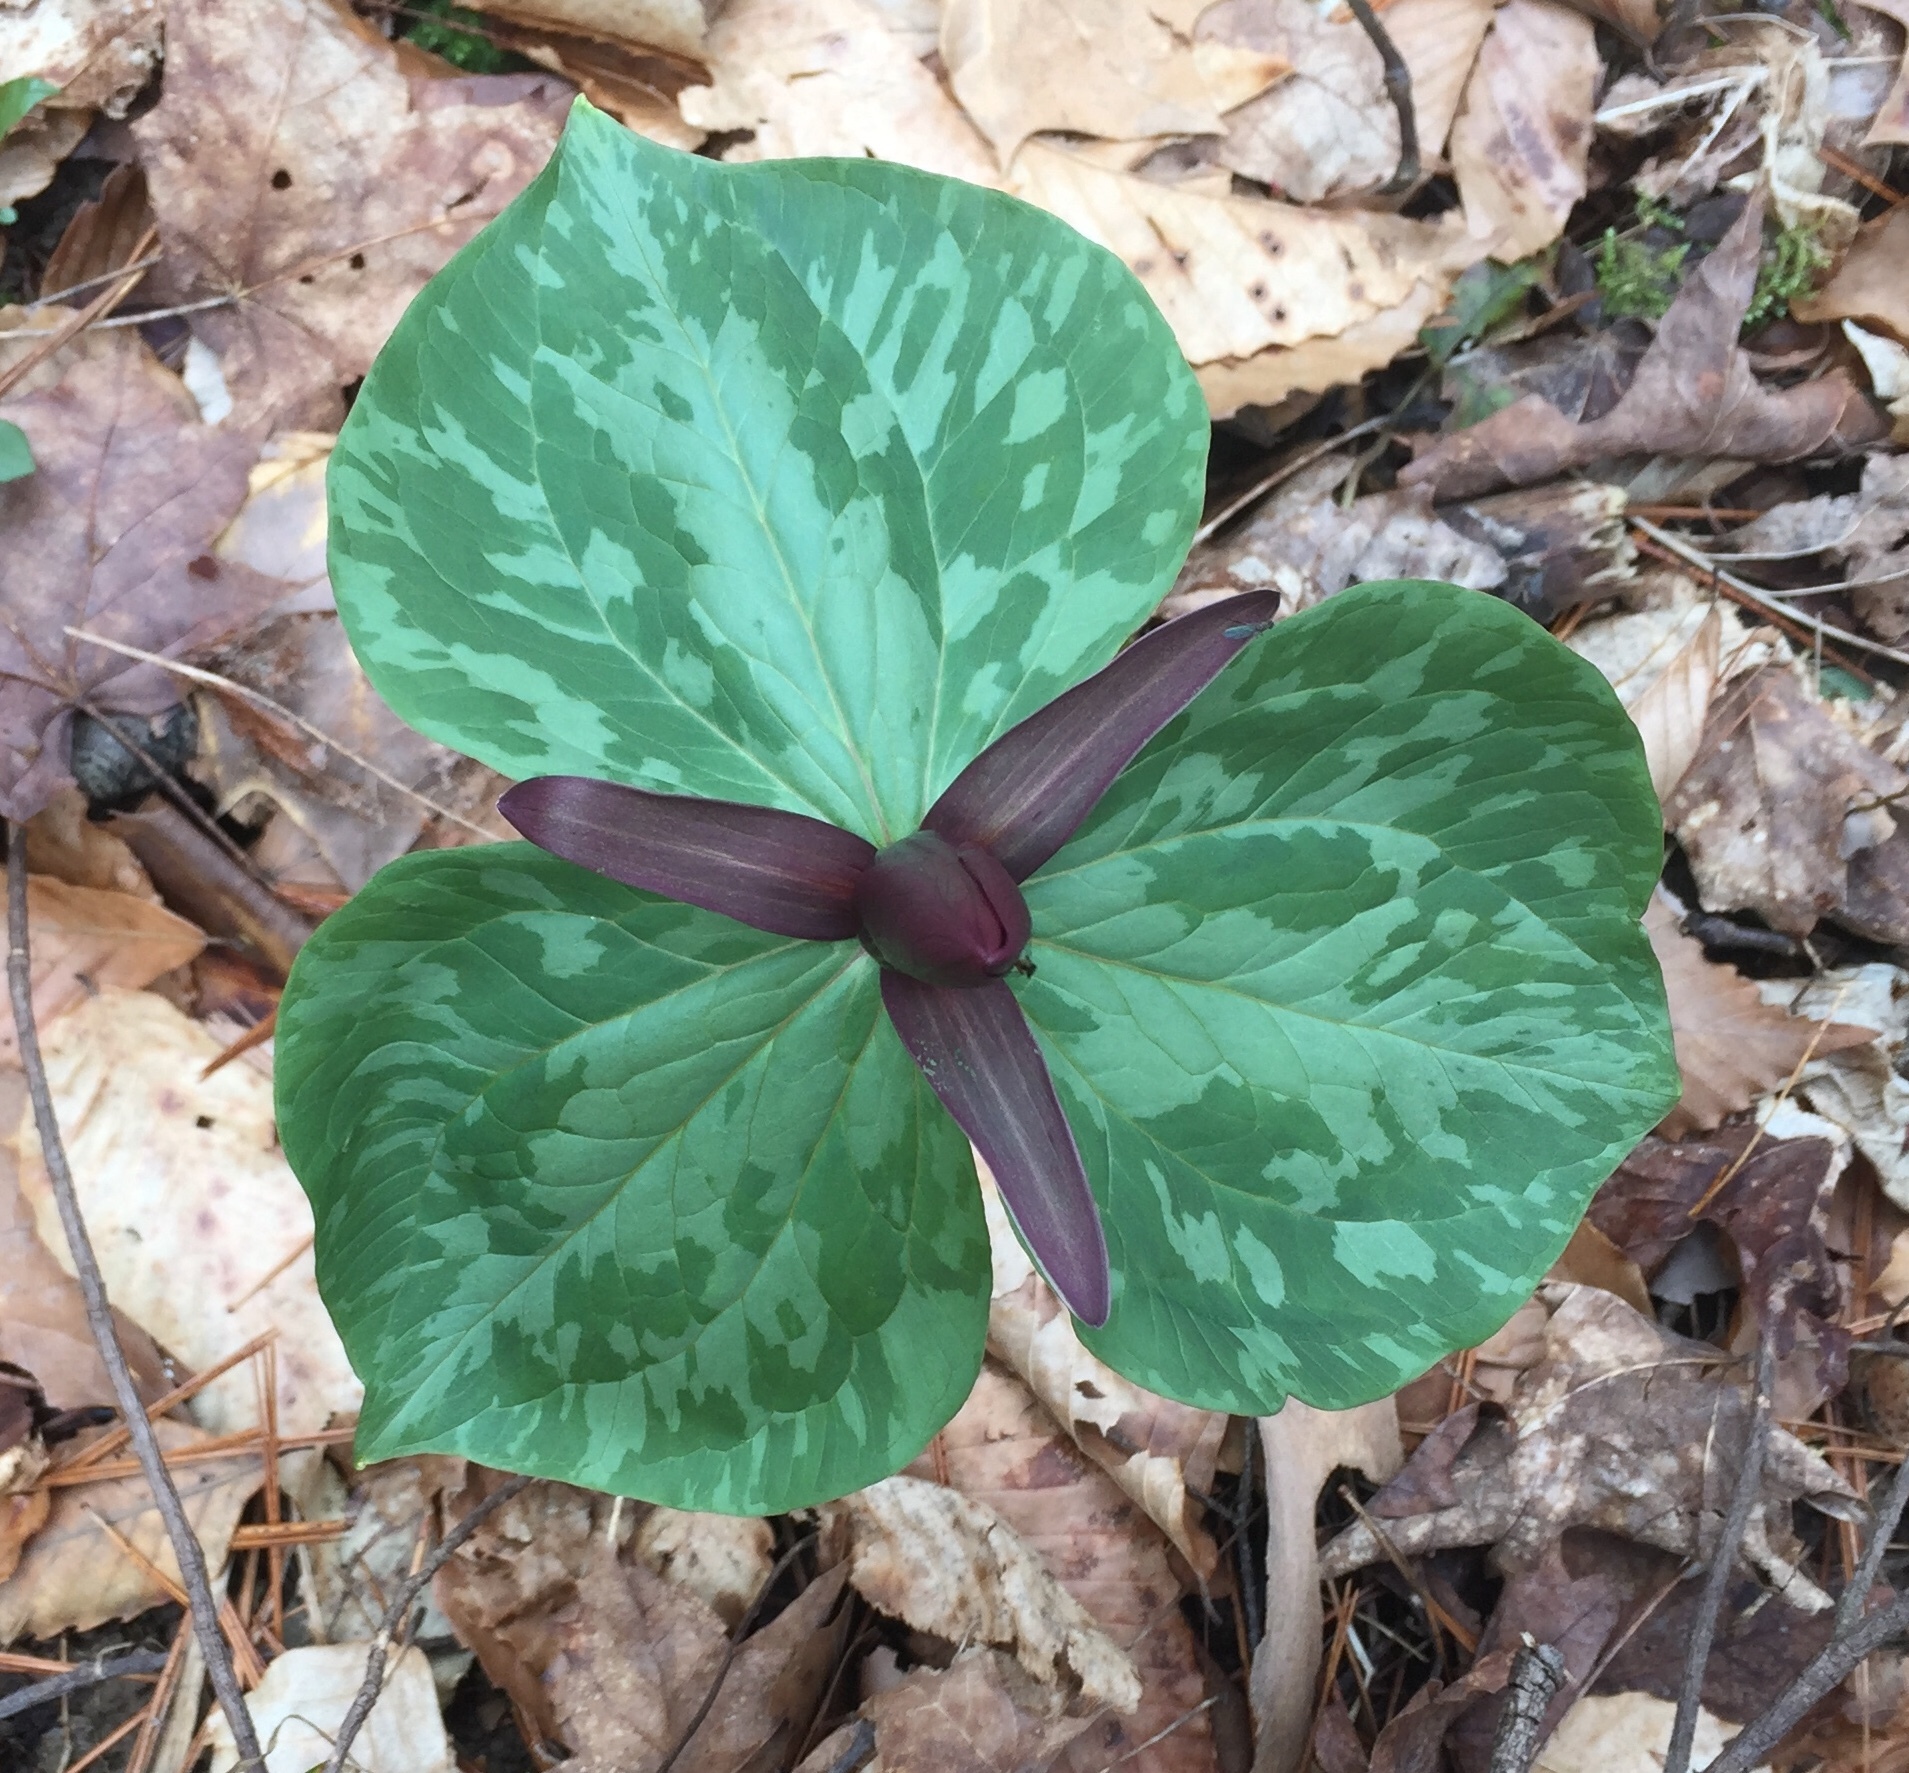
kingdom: Plantae
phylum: Tracheophyta
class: Liliopsida
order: Liliales
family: Melanthiaceae
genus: Trillium
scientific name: Trillium cuneatum
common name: Cuneate trillium
